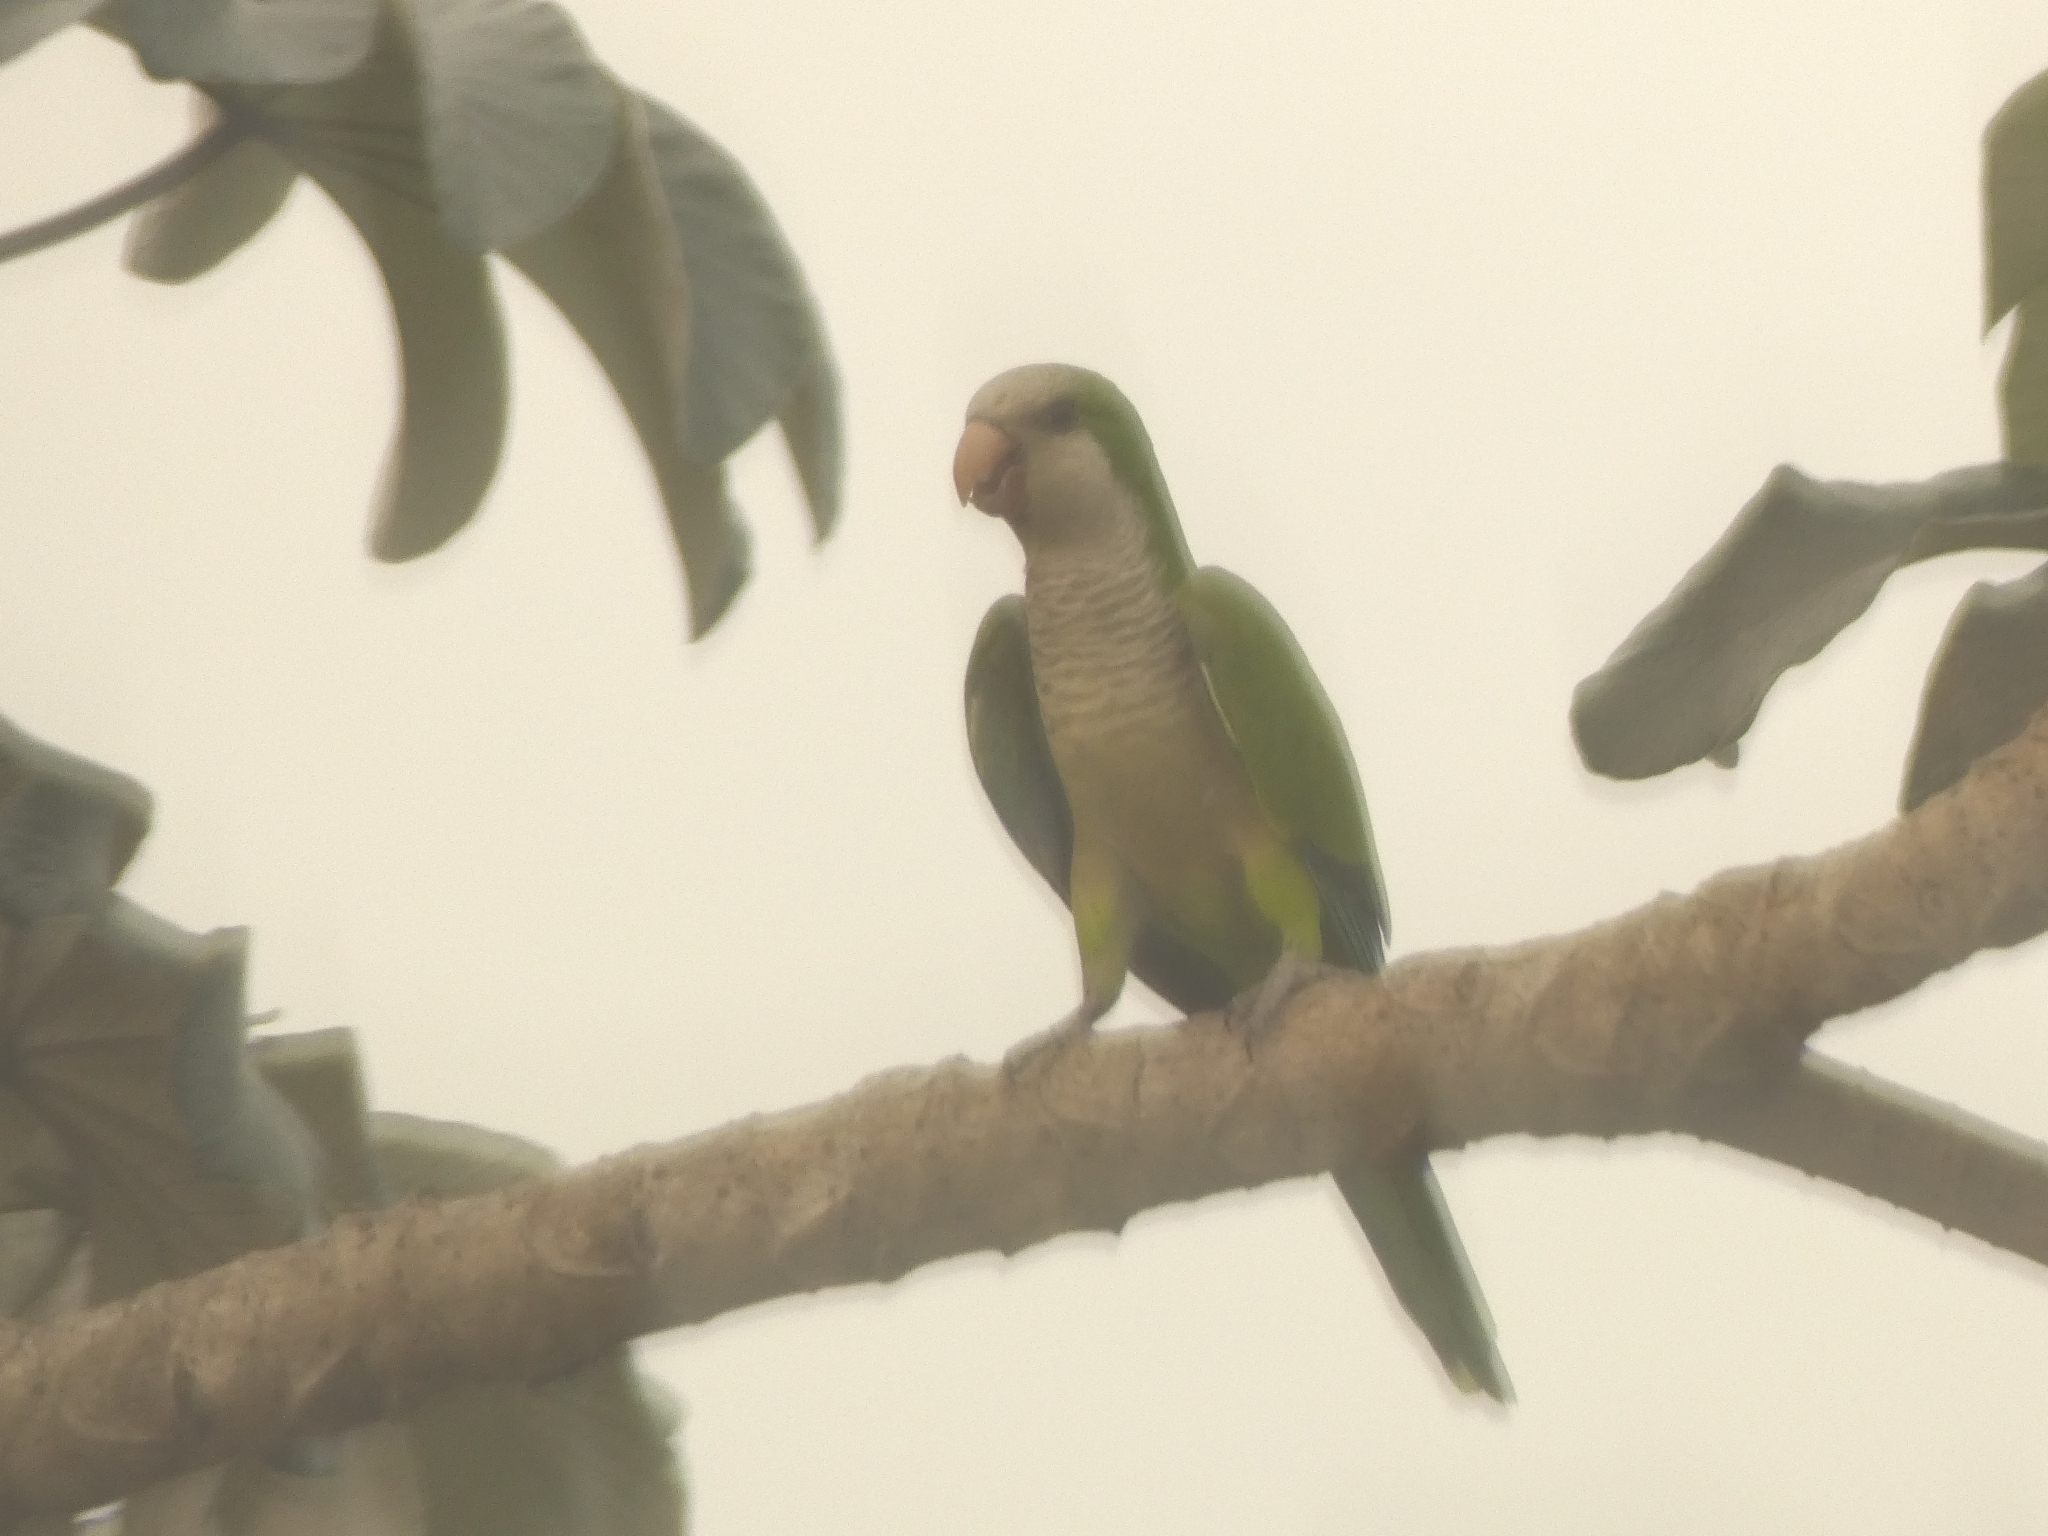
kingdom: Animalia
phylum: Chordata
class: Aves
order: Psittaciformes
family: Psittacidae
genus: Myiopsitta
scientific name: Myiopsitta monachus
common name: Monk parakeet
